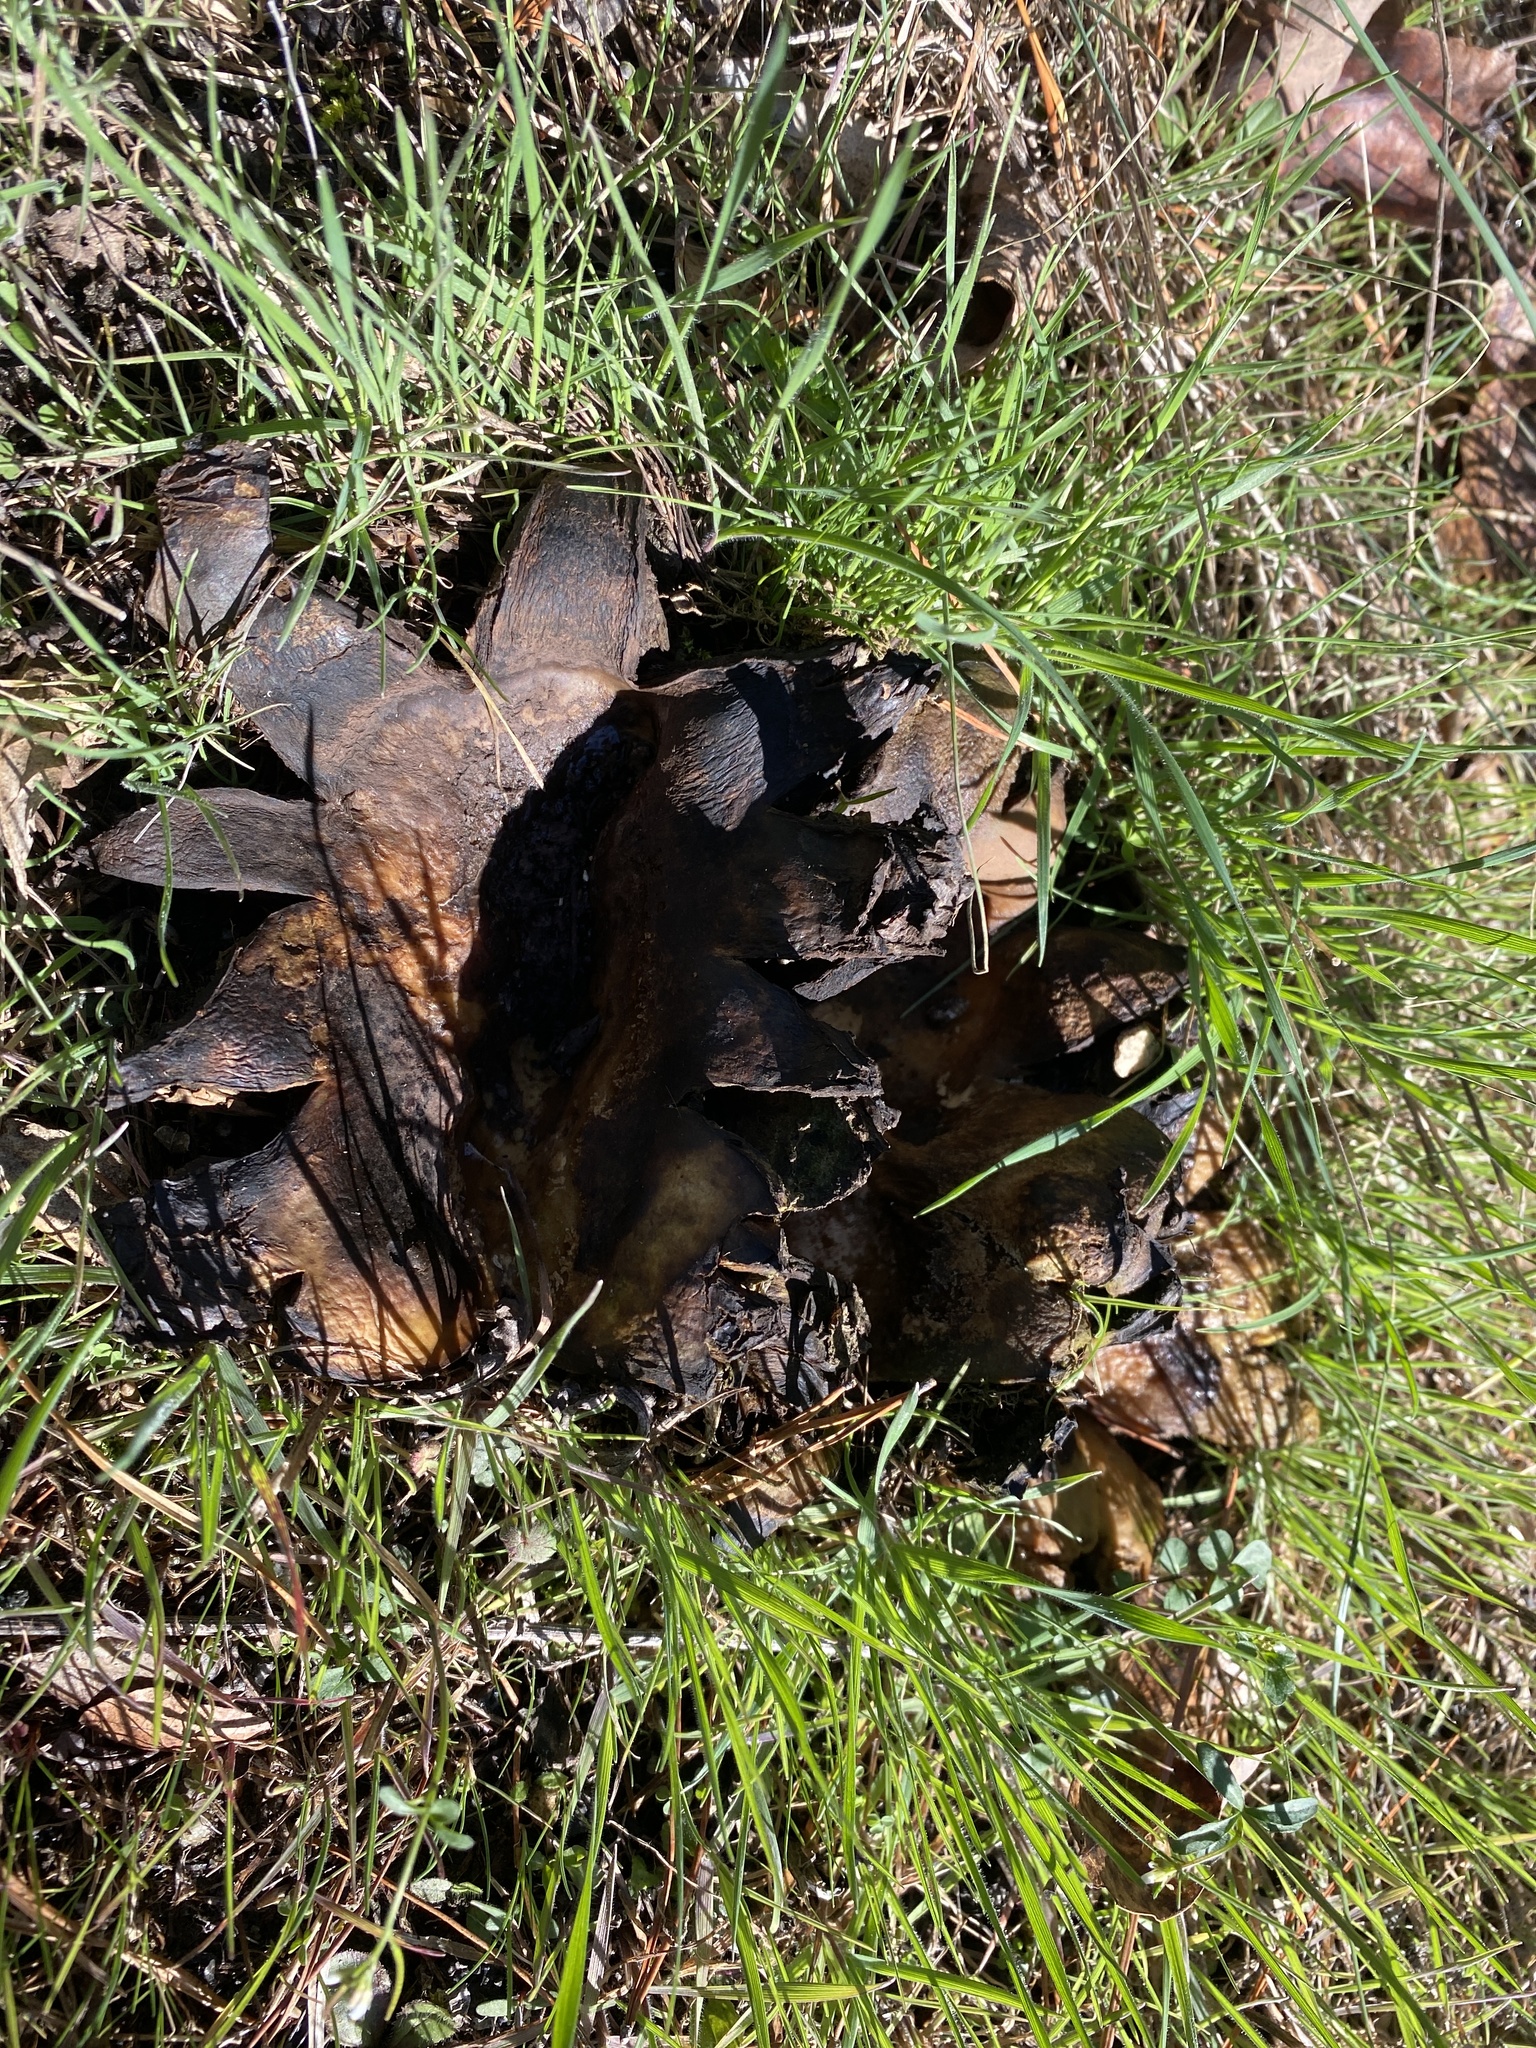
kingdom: Fungi
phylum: Basidiomycota
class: Agaricomycetes
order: Boletales
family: Sclerodermataceae
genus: Scleroderma
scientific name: Scleroderma polyrhizum
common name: Many-rooted earthball
